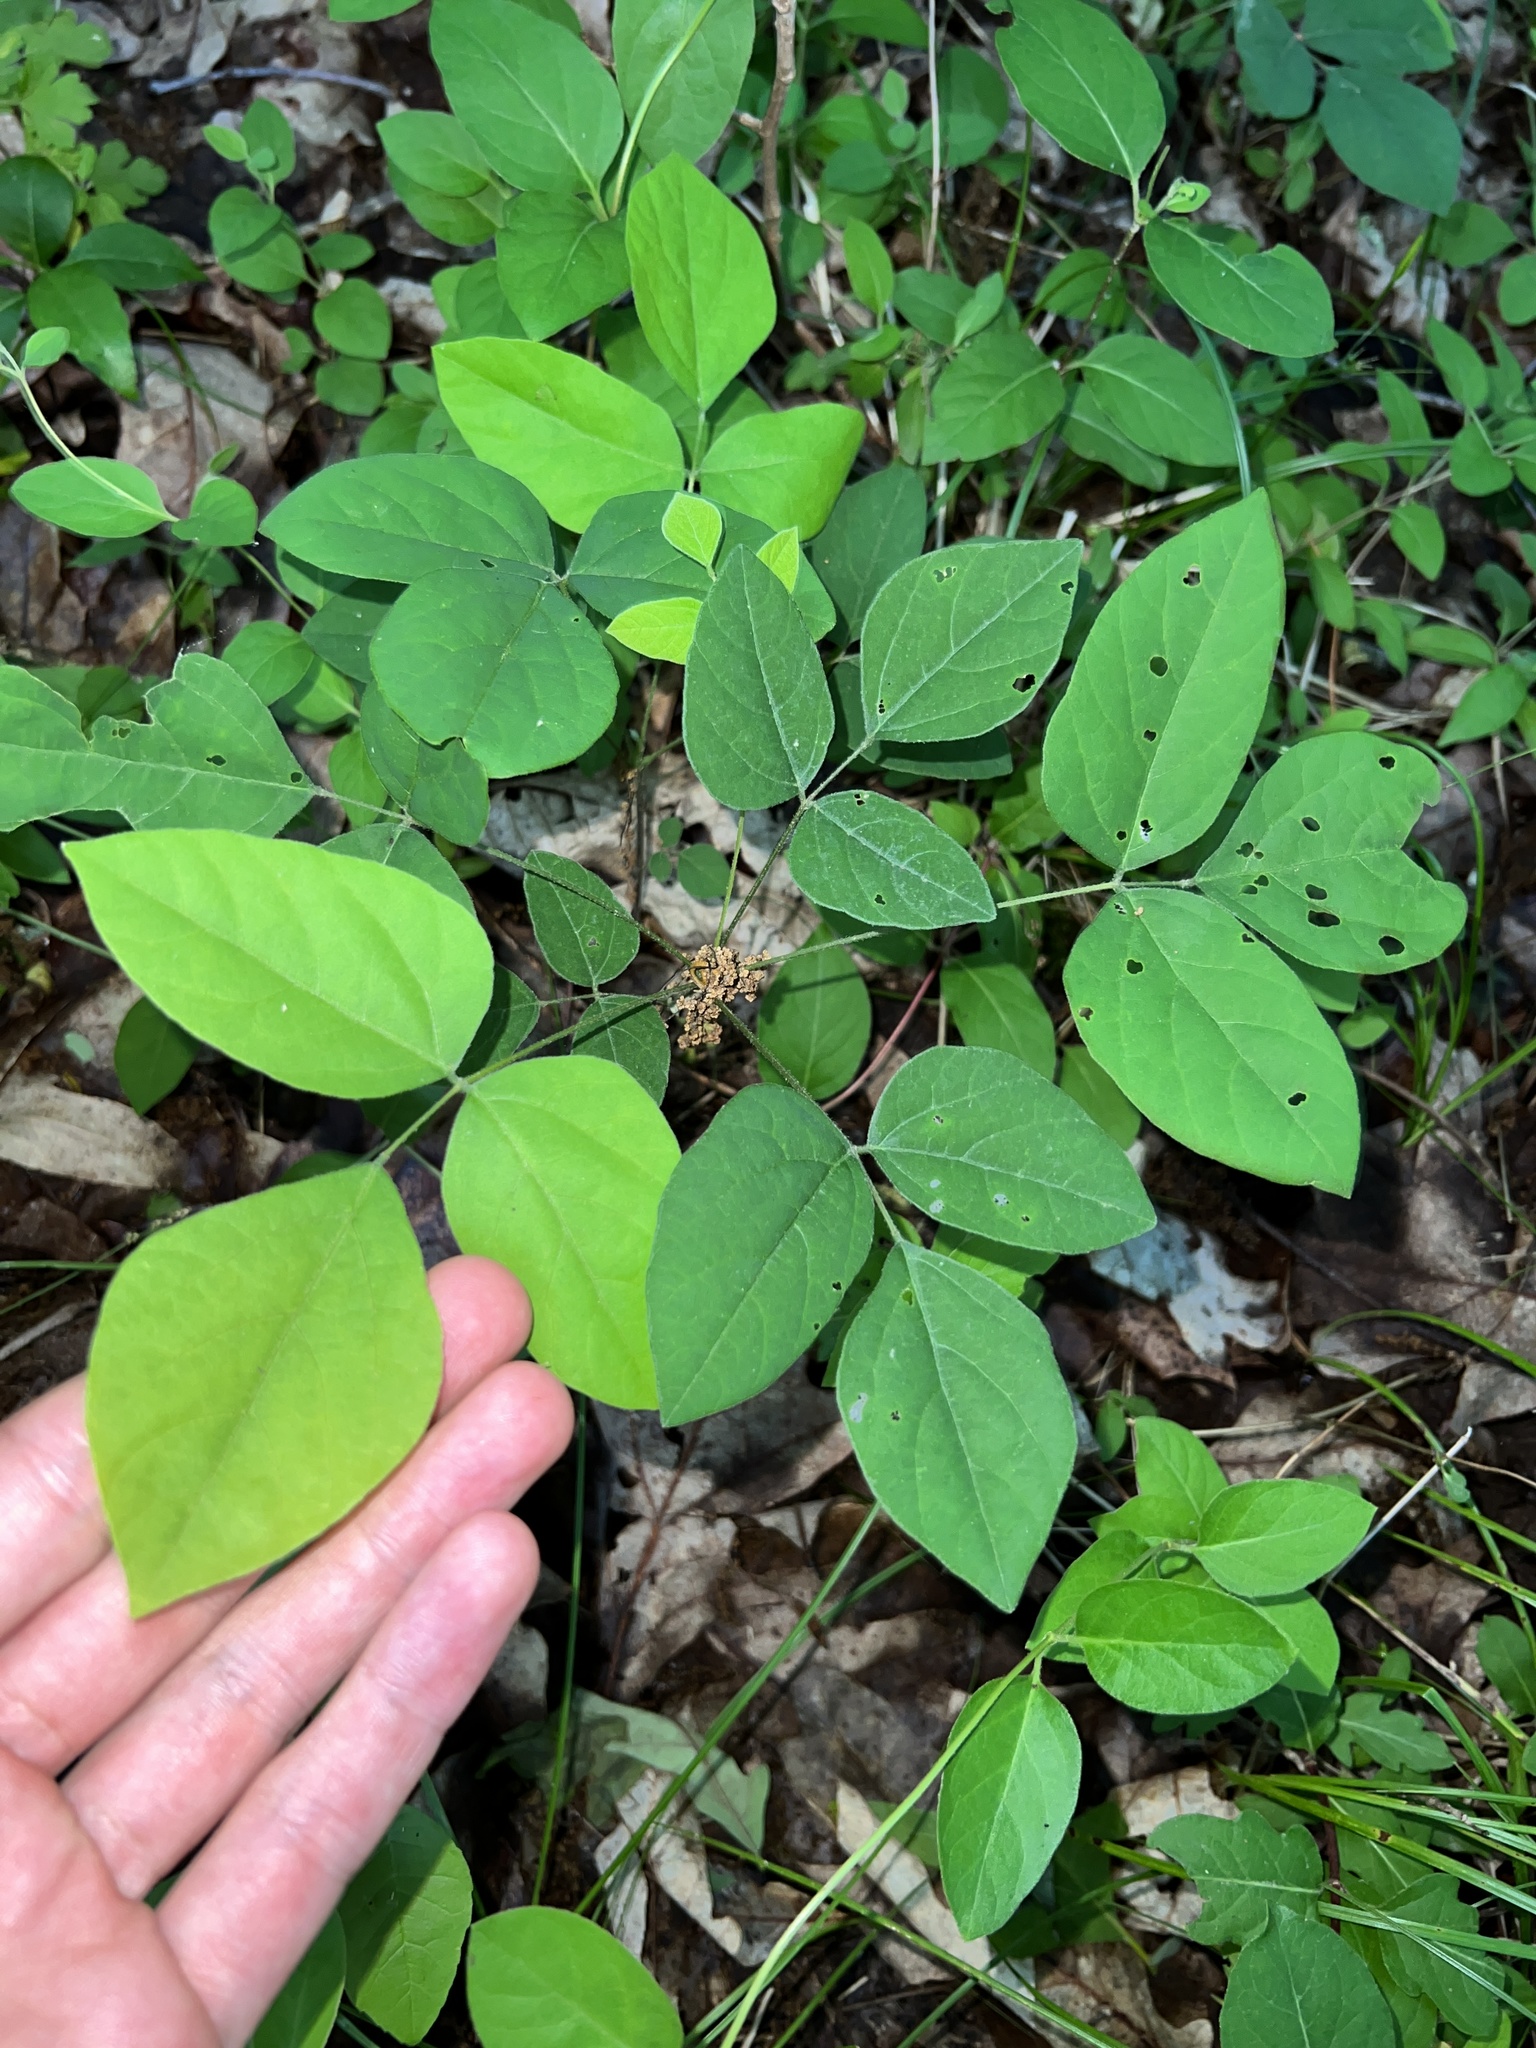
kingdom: Plantae
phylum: Tracheophyta
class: Magnoliopsida
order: Fabales
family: Fabaceae
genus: Hylodesmum
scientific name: Hylodesmum nudiflorum
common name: Bare-stemmed tick-trefoil
